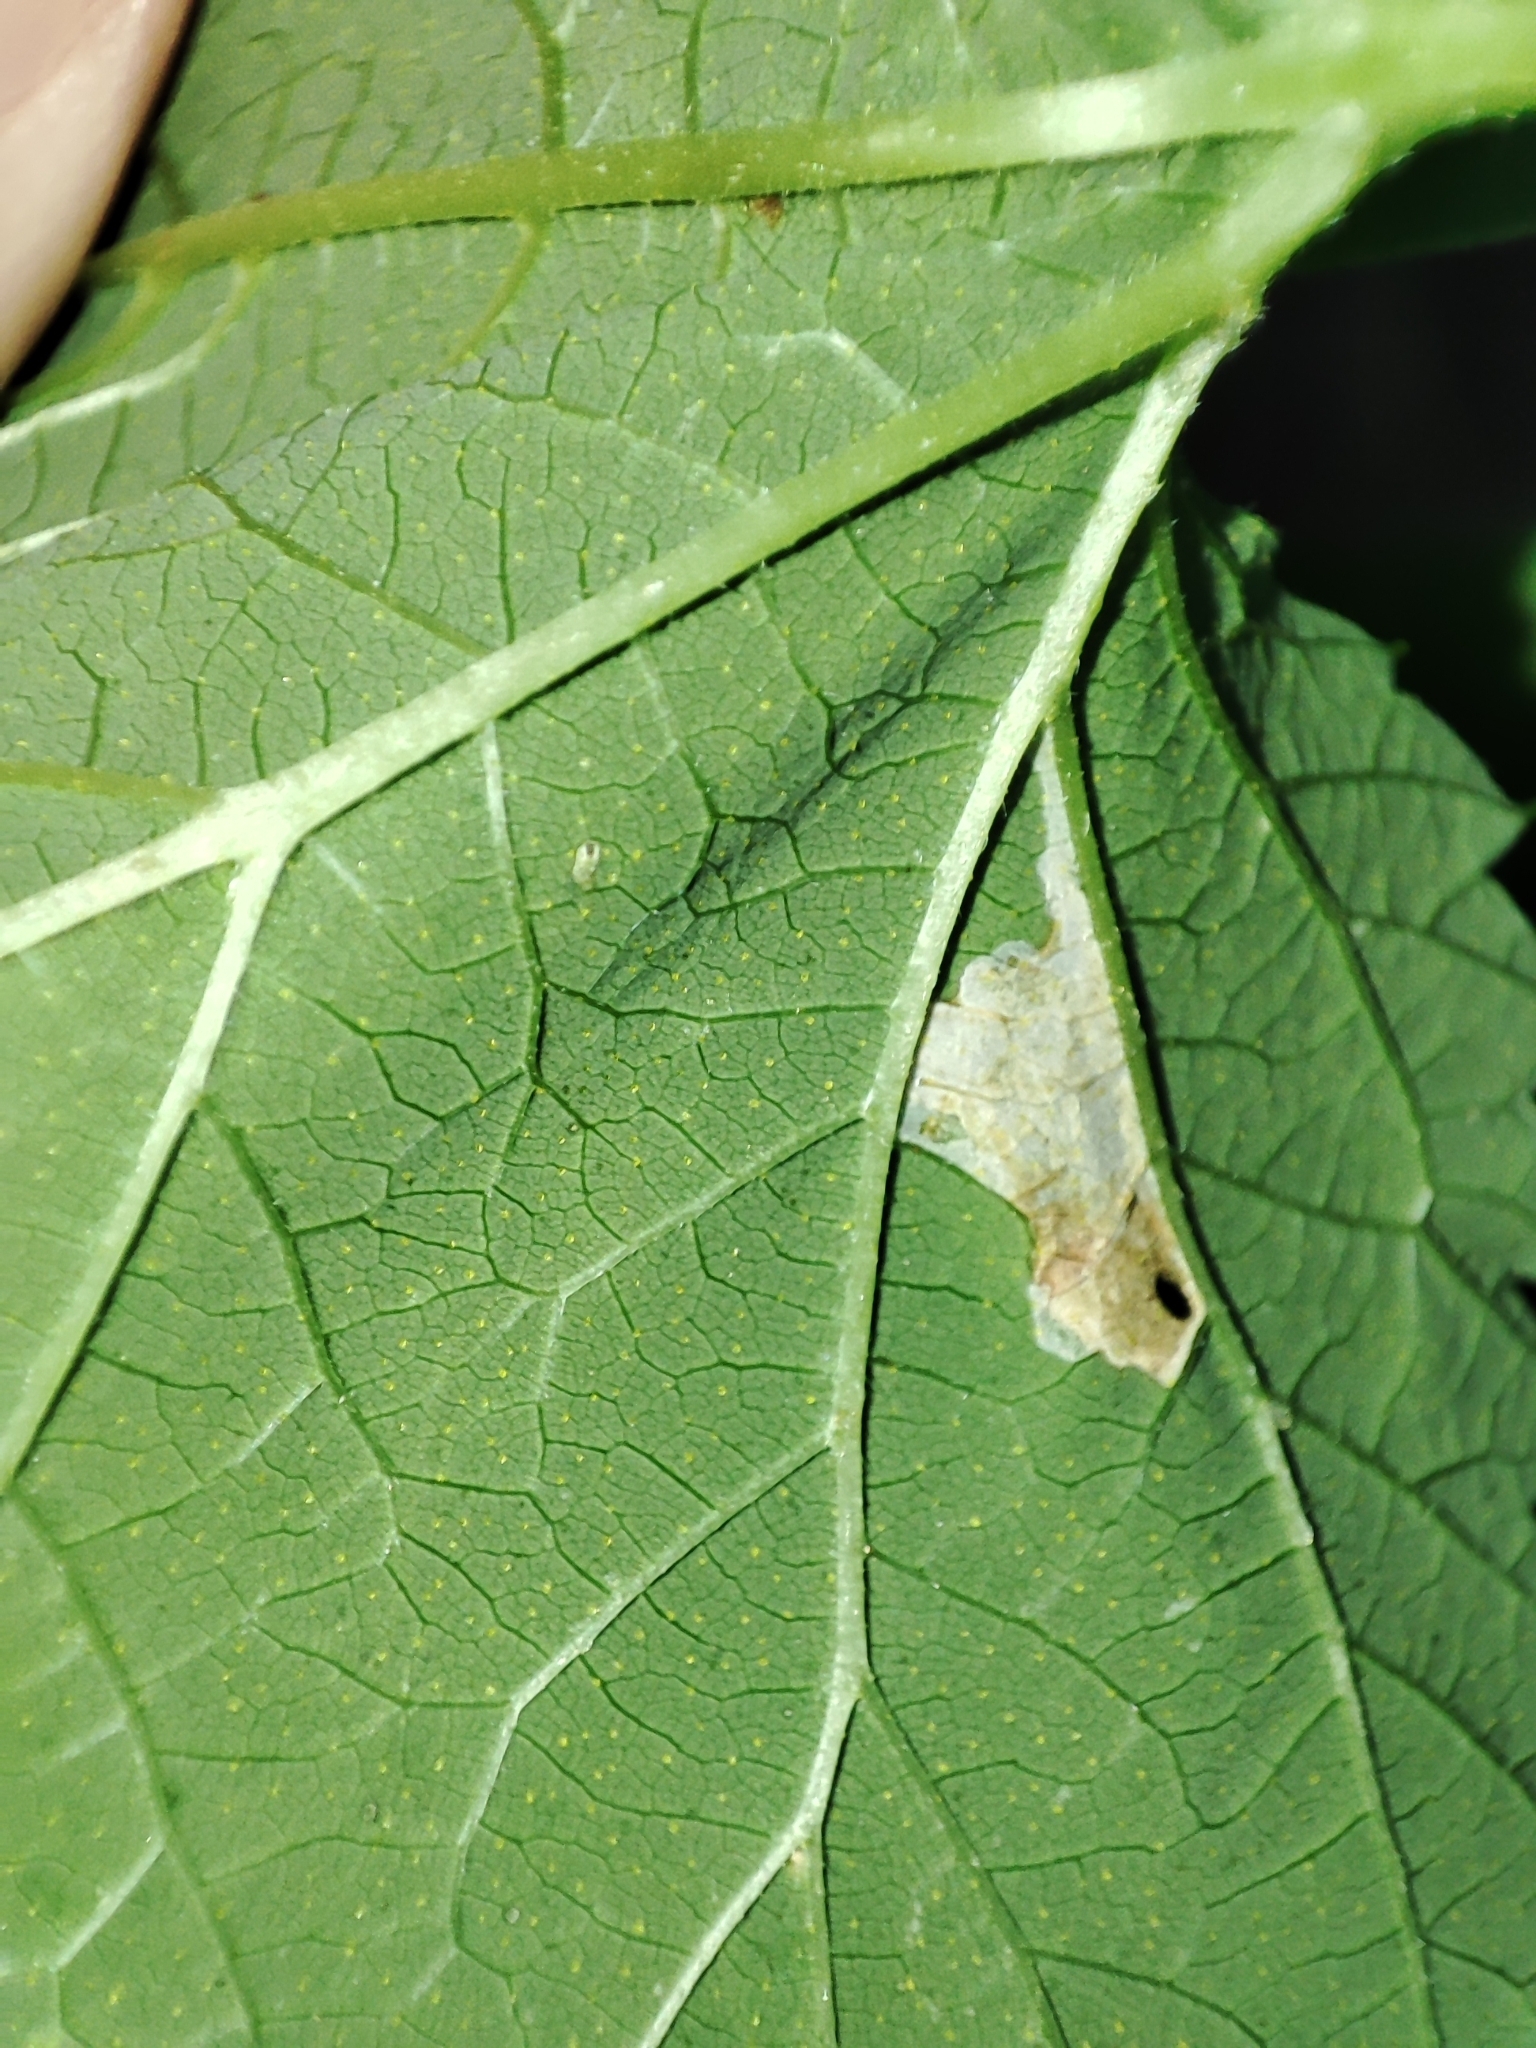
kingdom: Plantae
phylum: Tracheophyta
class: Magnoliopsida
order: Rosales
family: Cannabaceae
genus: Humulus
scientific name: Humulus lupulus
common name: Hop
